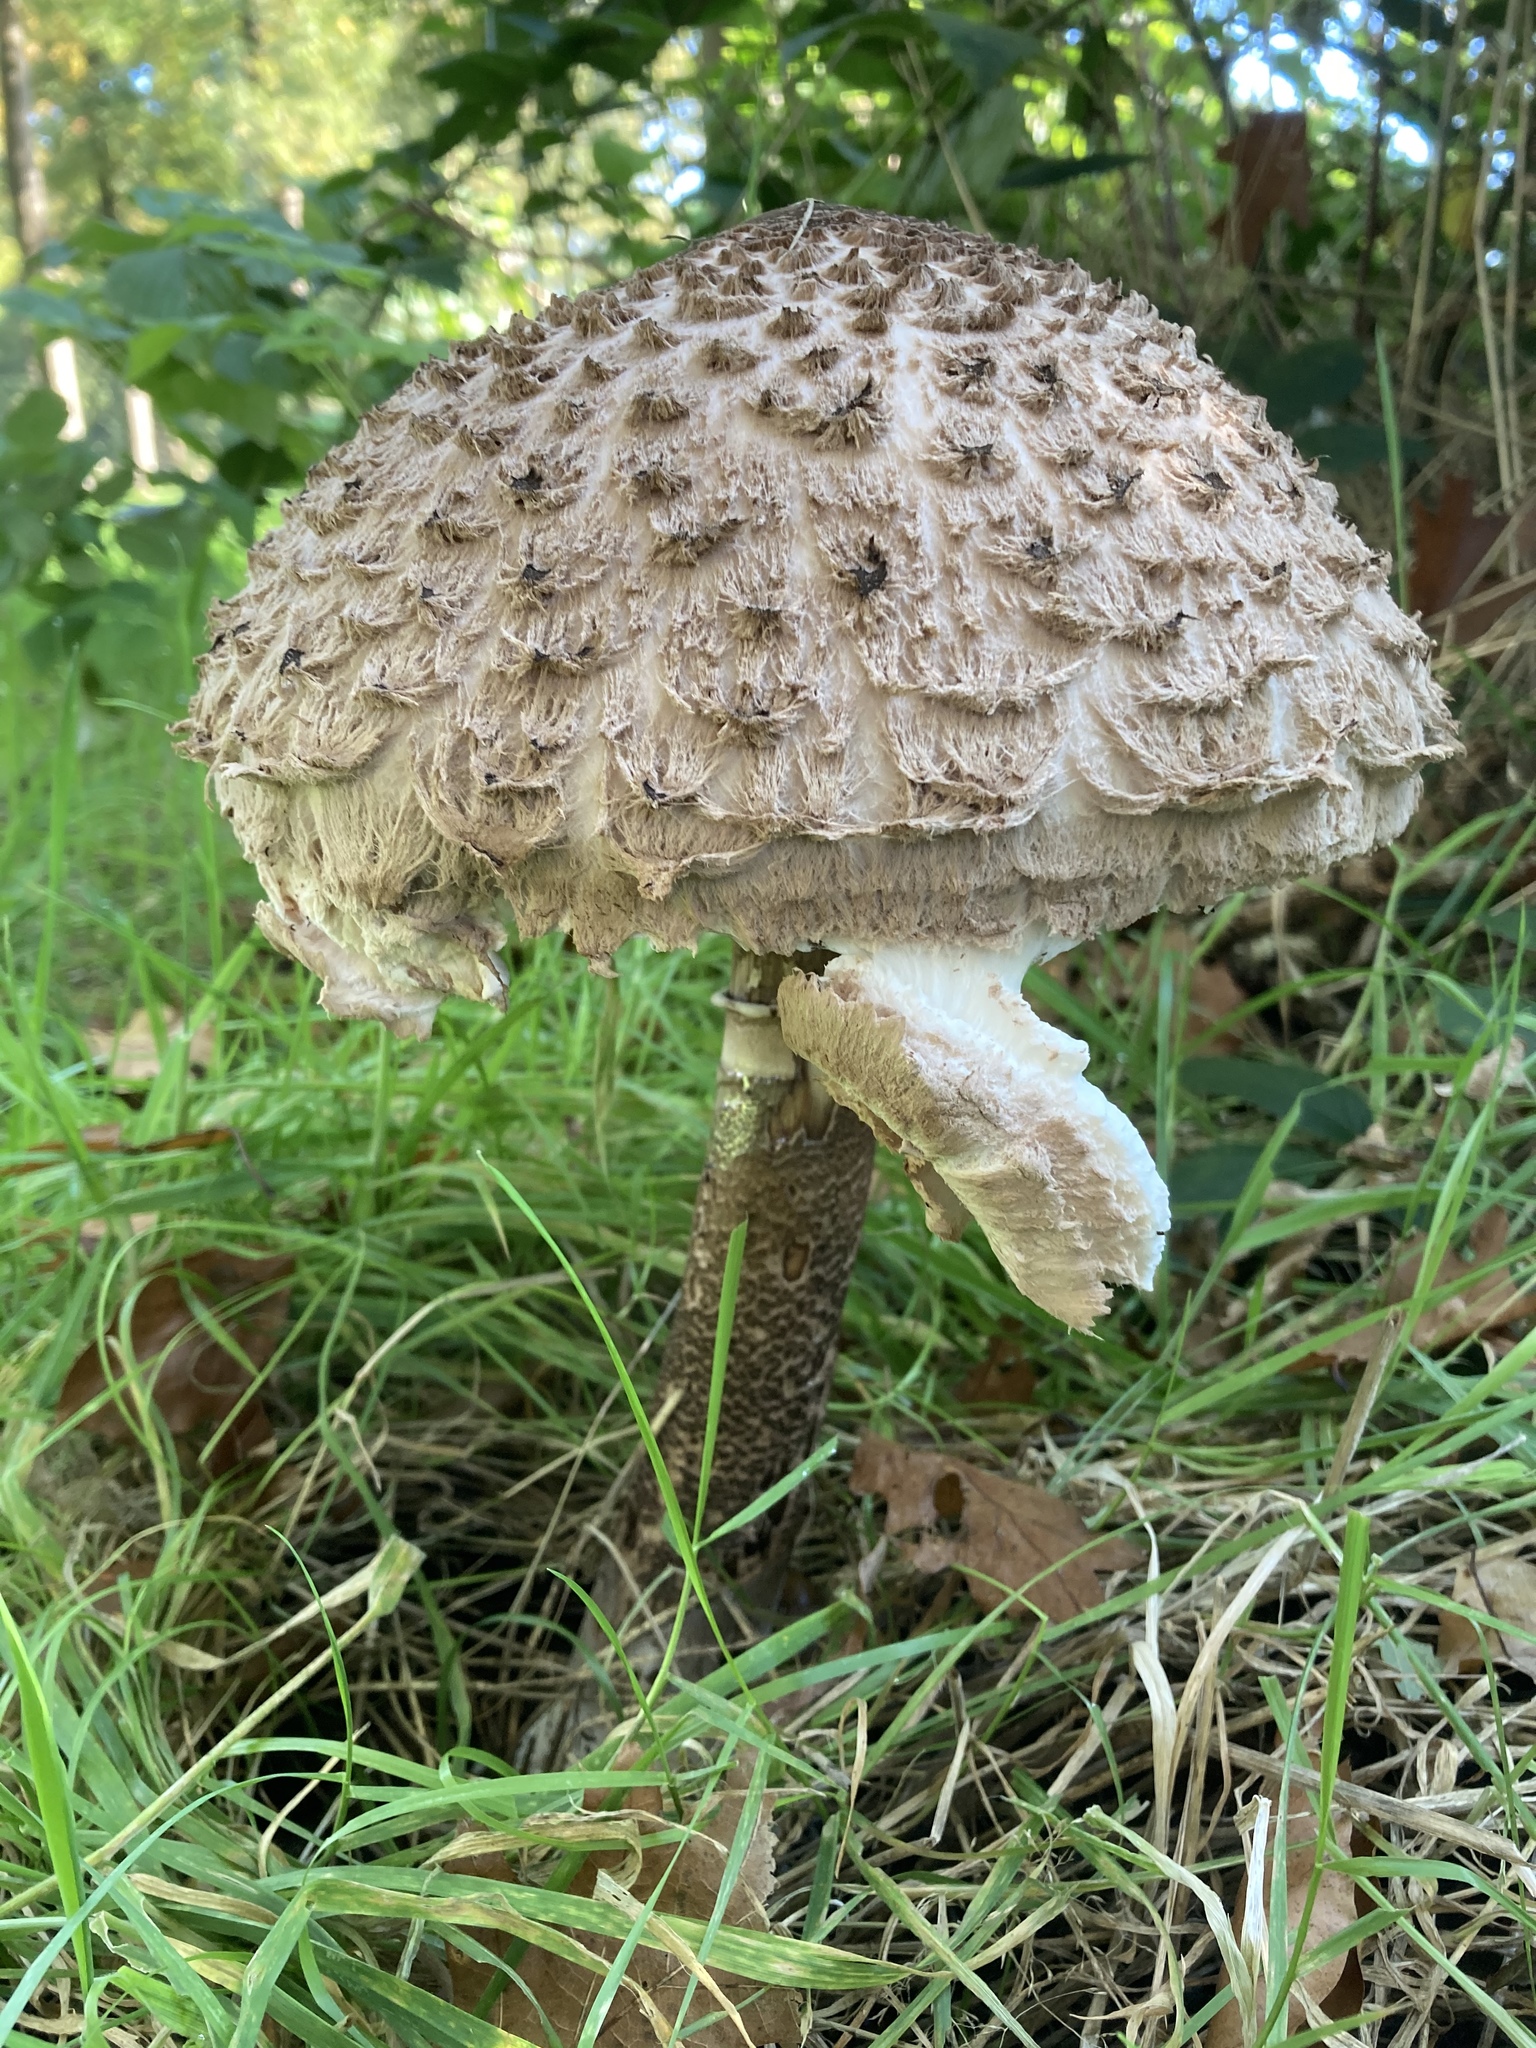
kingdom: Fungi
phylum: Basidiomycota
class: Agaricomycetes
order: Agaricales
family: Agaricaceae
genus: Macrolepiota
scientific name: Macrolepiota procera
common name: Parasol
